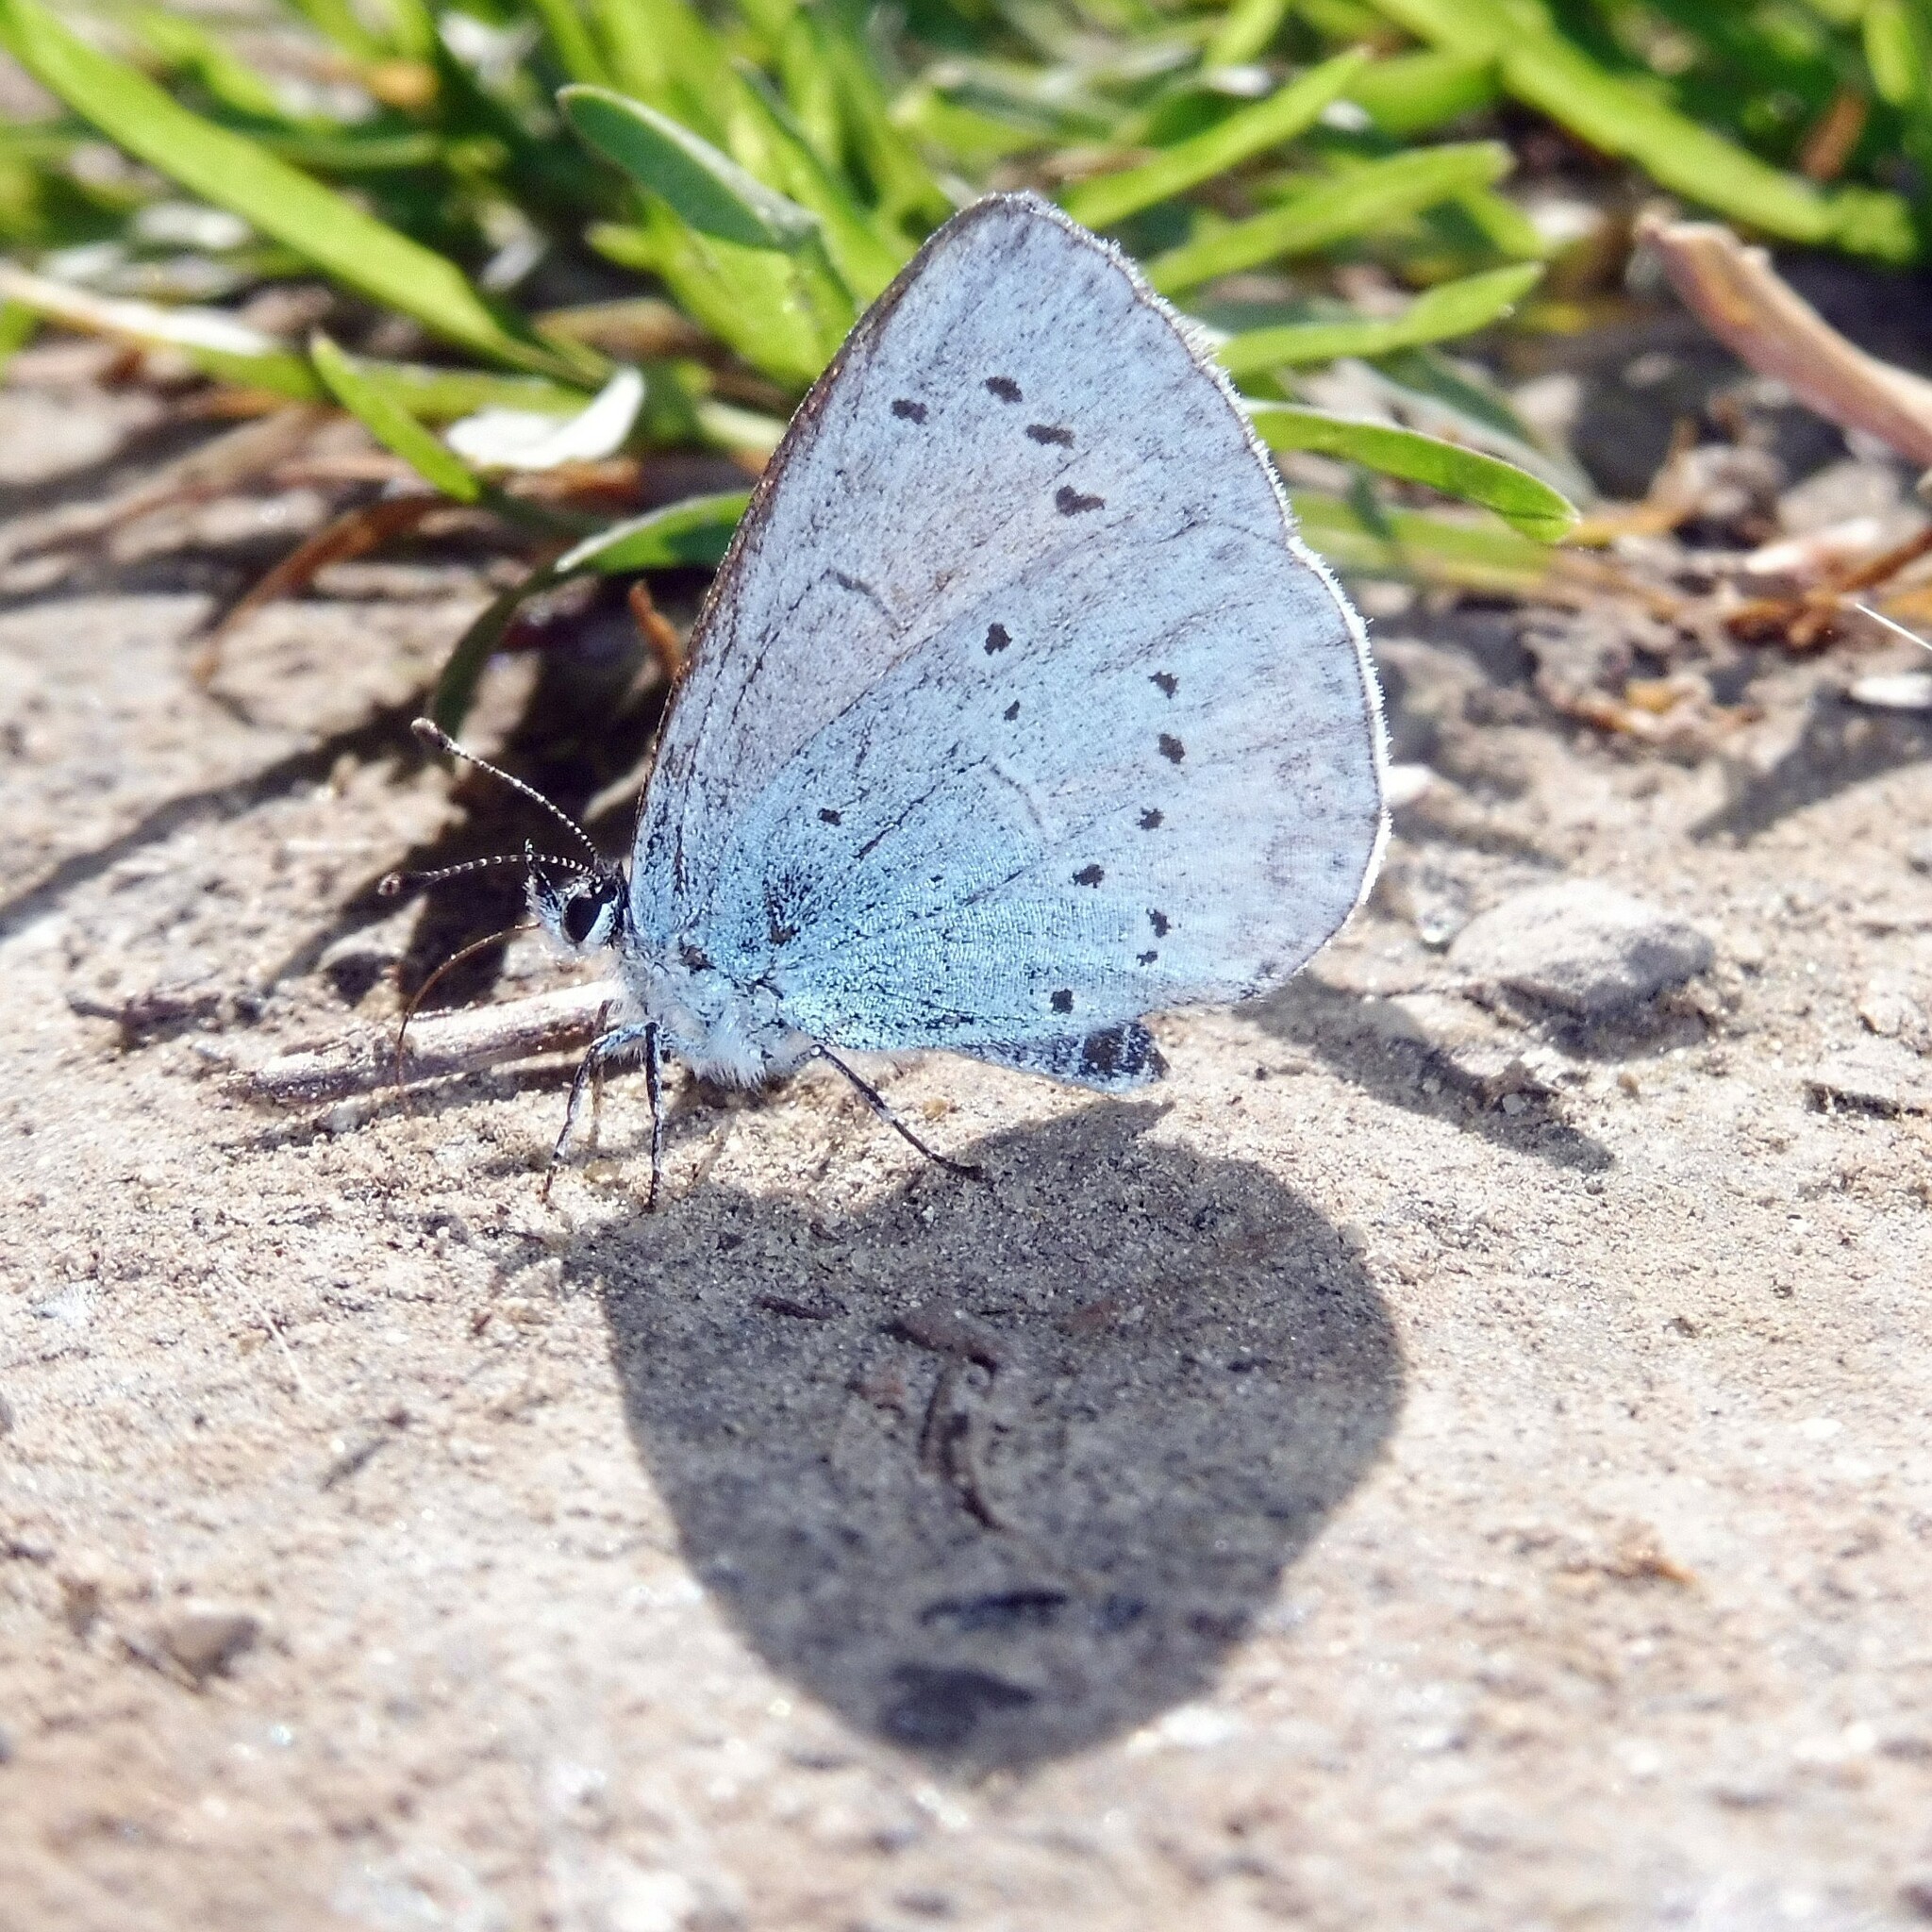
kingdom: Animalia
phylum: Arthropoda
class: Insecta
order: Lepidoptera
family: Lycaenidae
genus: Celastrina
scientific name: Celastrina argiolus
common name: Holly blue
